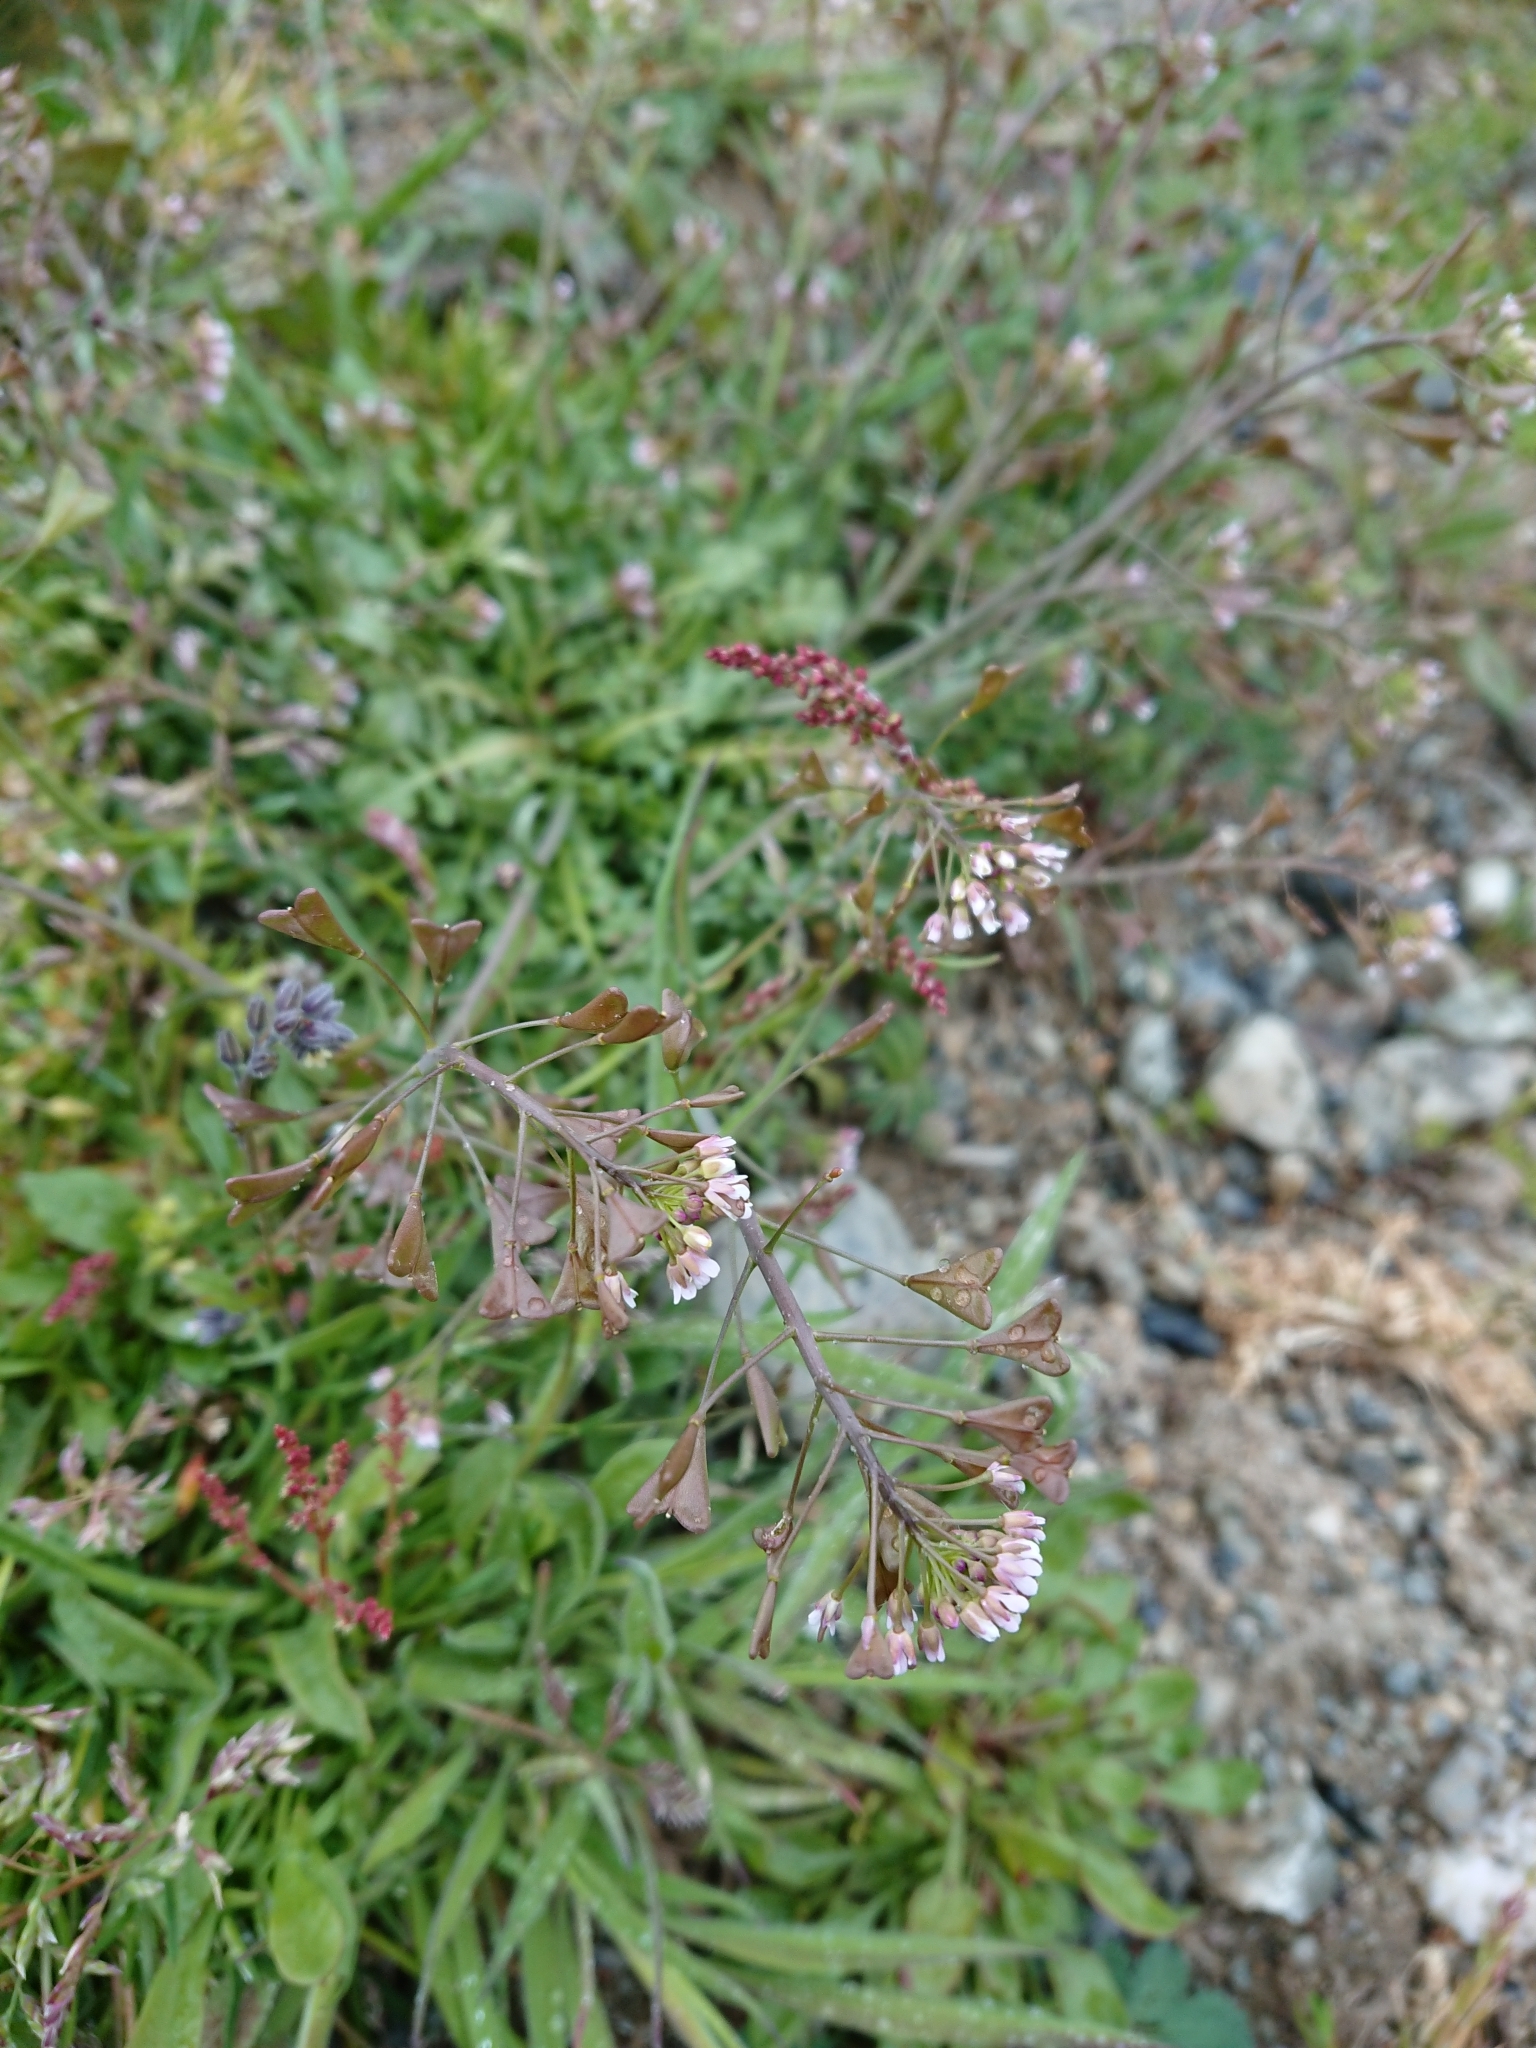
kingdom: Plantae
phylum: Tracheophyta
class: Magnoliopsida
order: Brassicales
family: Brassicaceae
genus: Capsella
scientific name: Capsella bursa-pastoris
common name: Shepherd's purse
